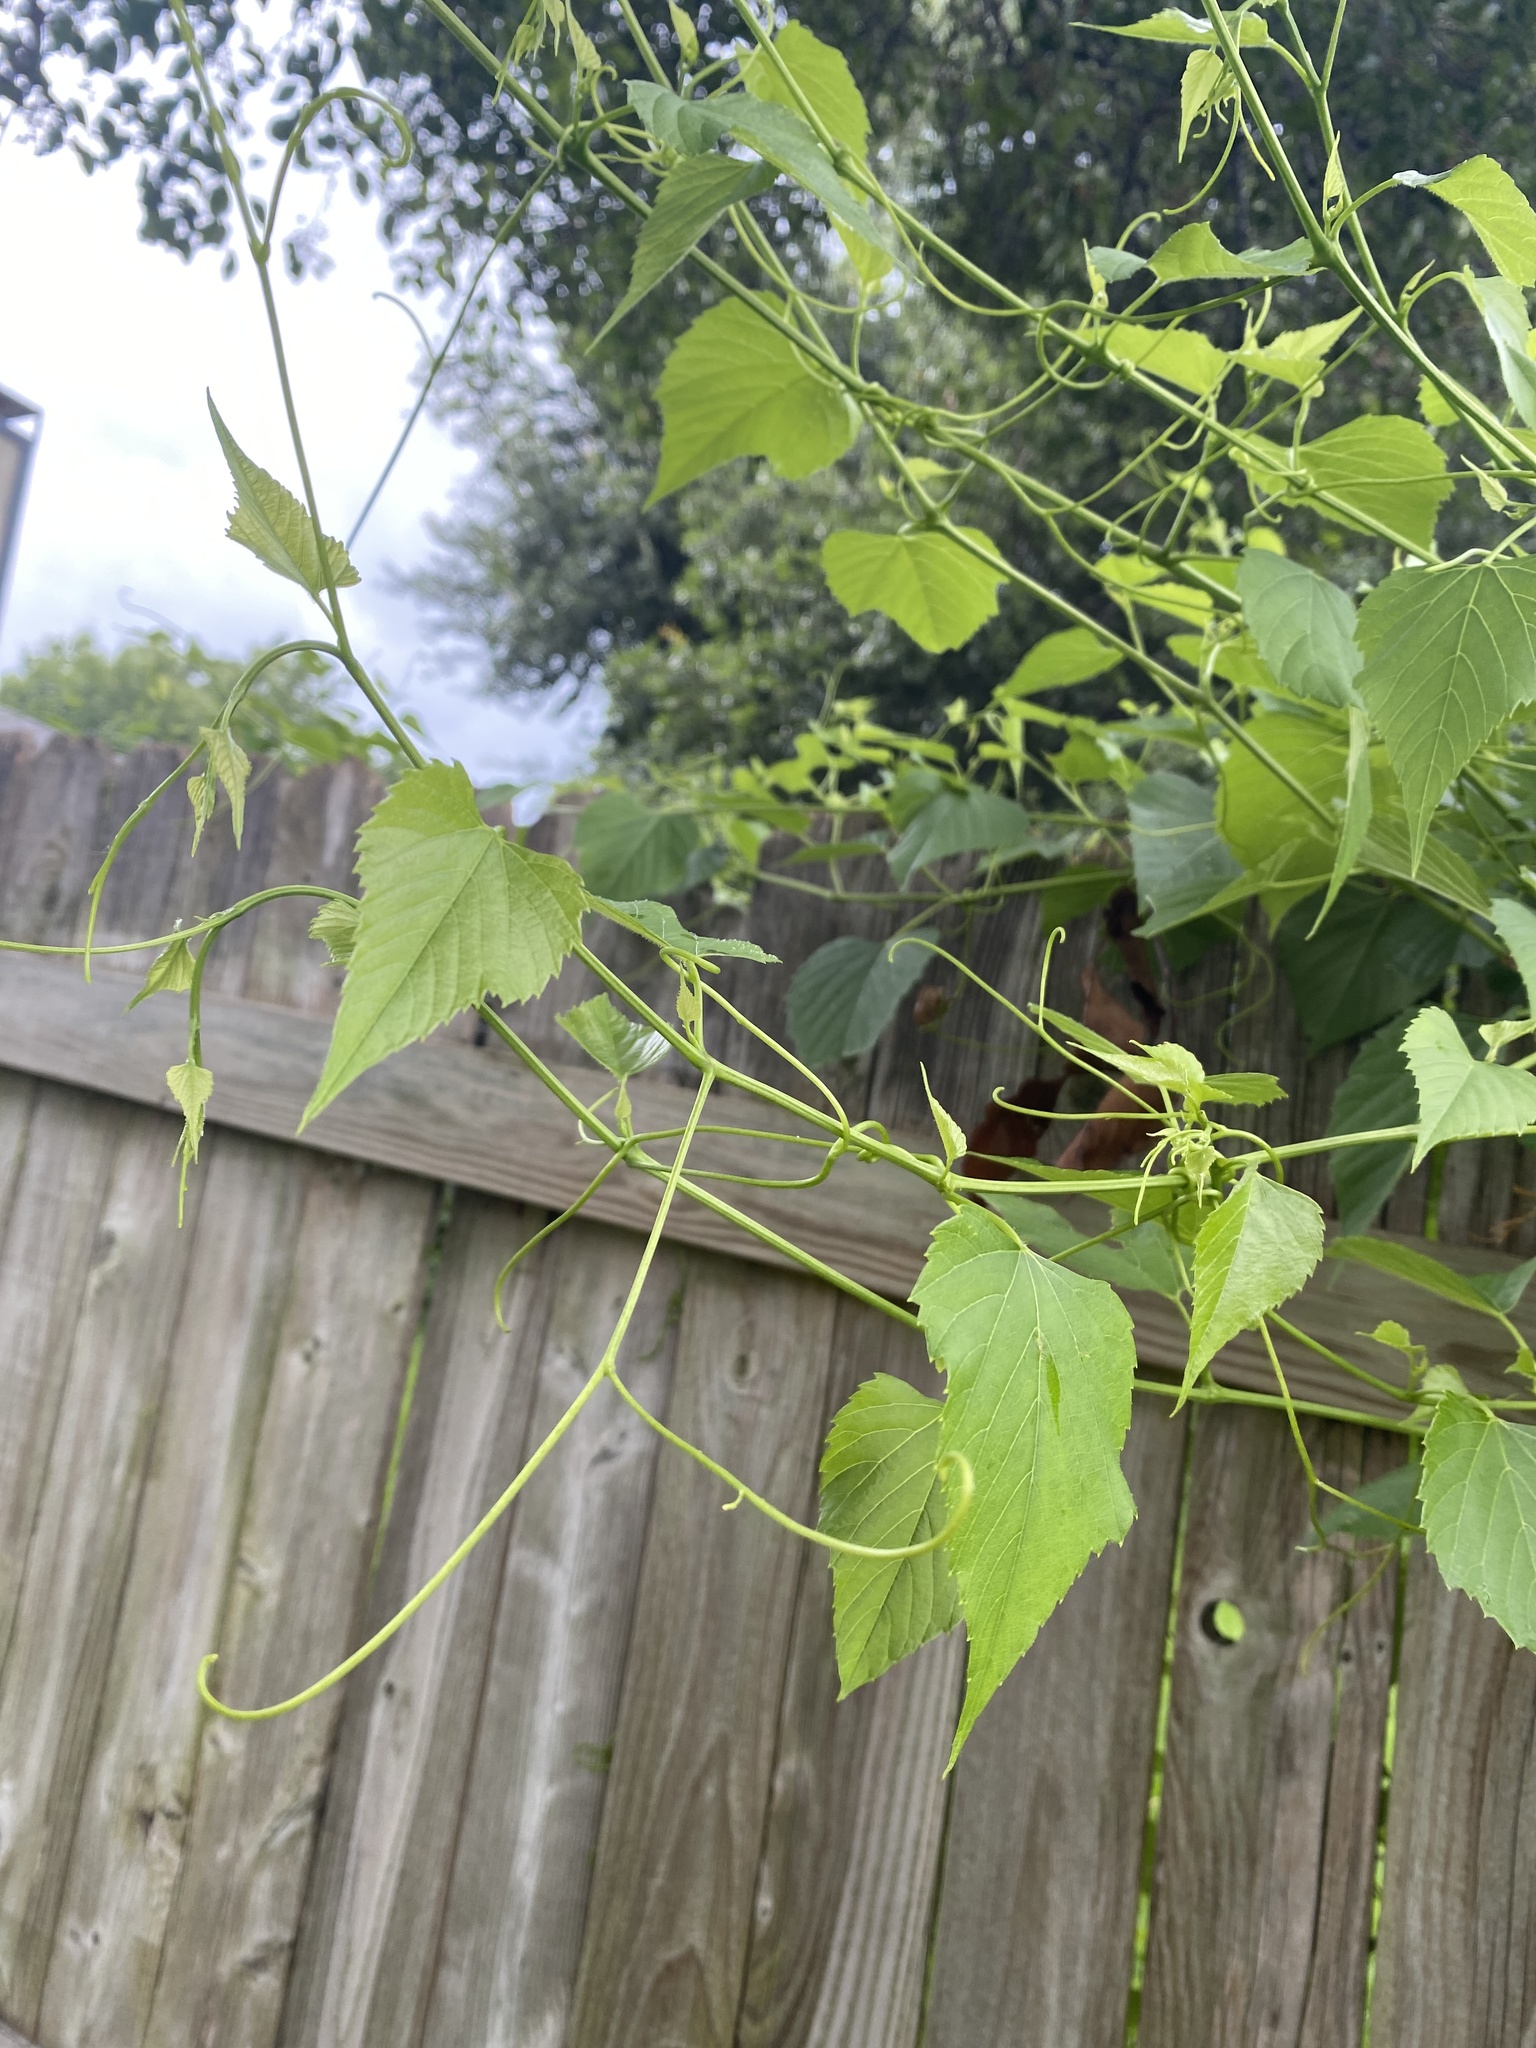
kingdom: Plantae
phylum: Tracheophyta
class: Magnoliopsida
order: Vitales
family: Vitaceae
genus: Ampelopsis
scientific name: Ampelopsis cordata
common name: Heart-leaf ampelopsis
